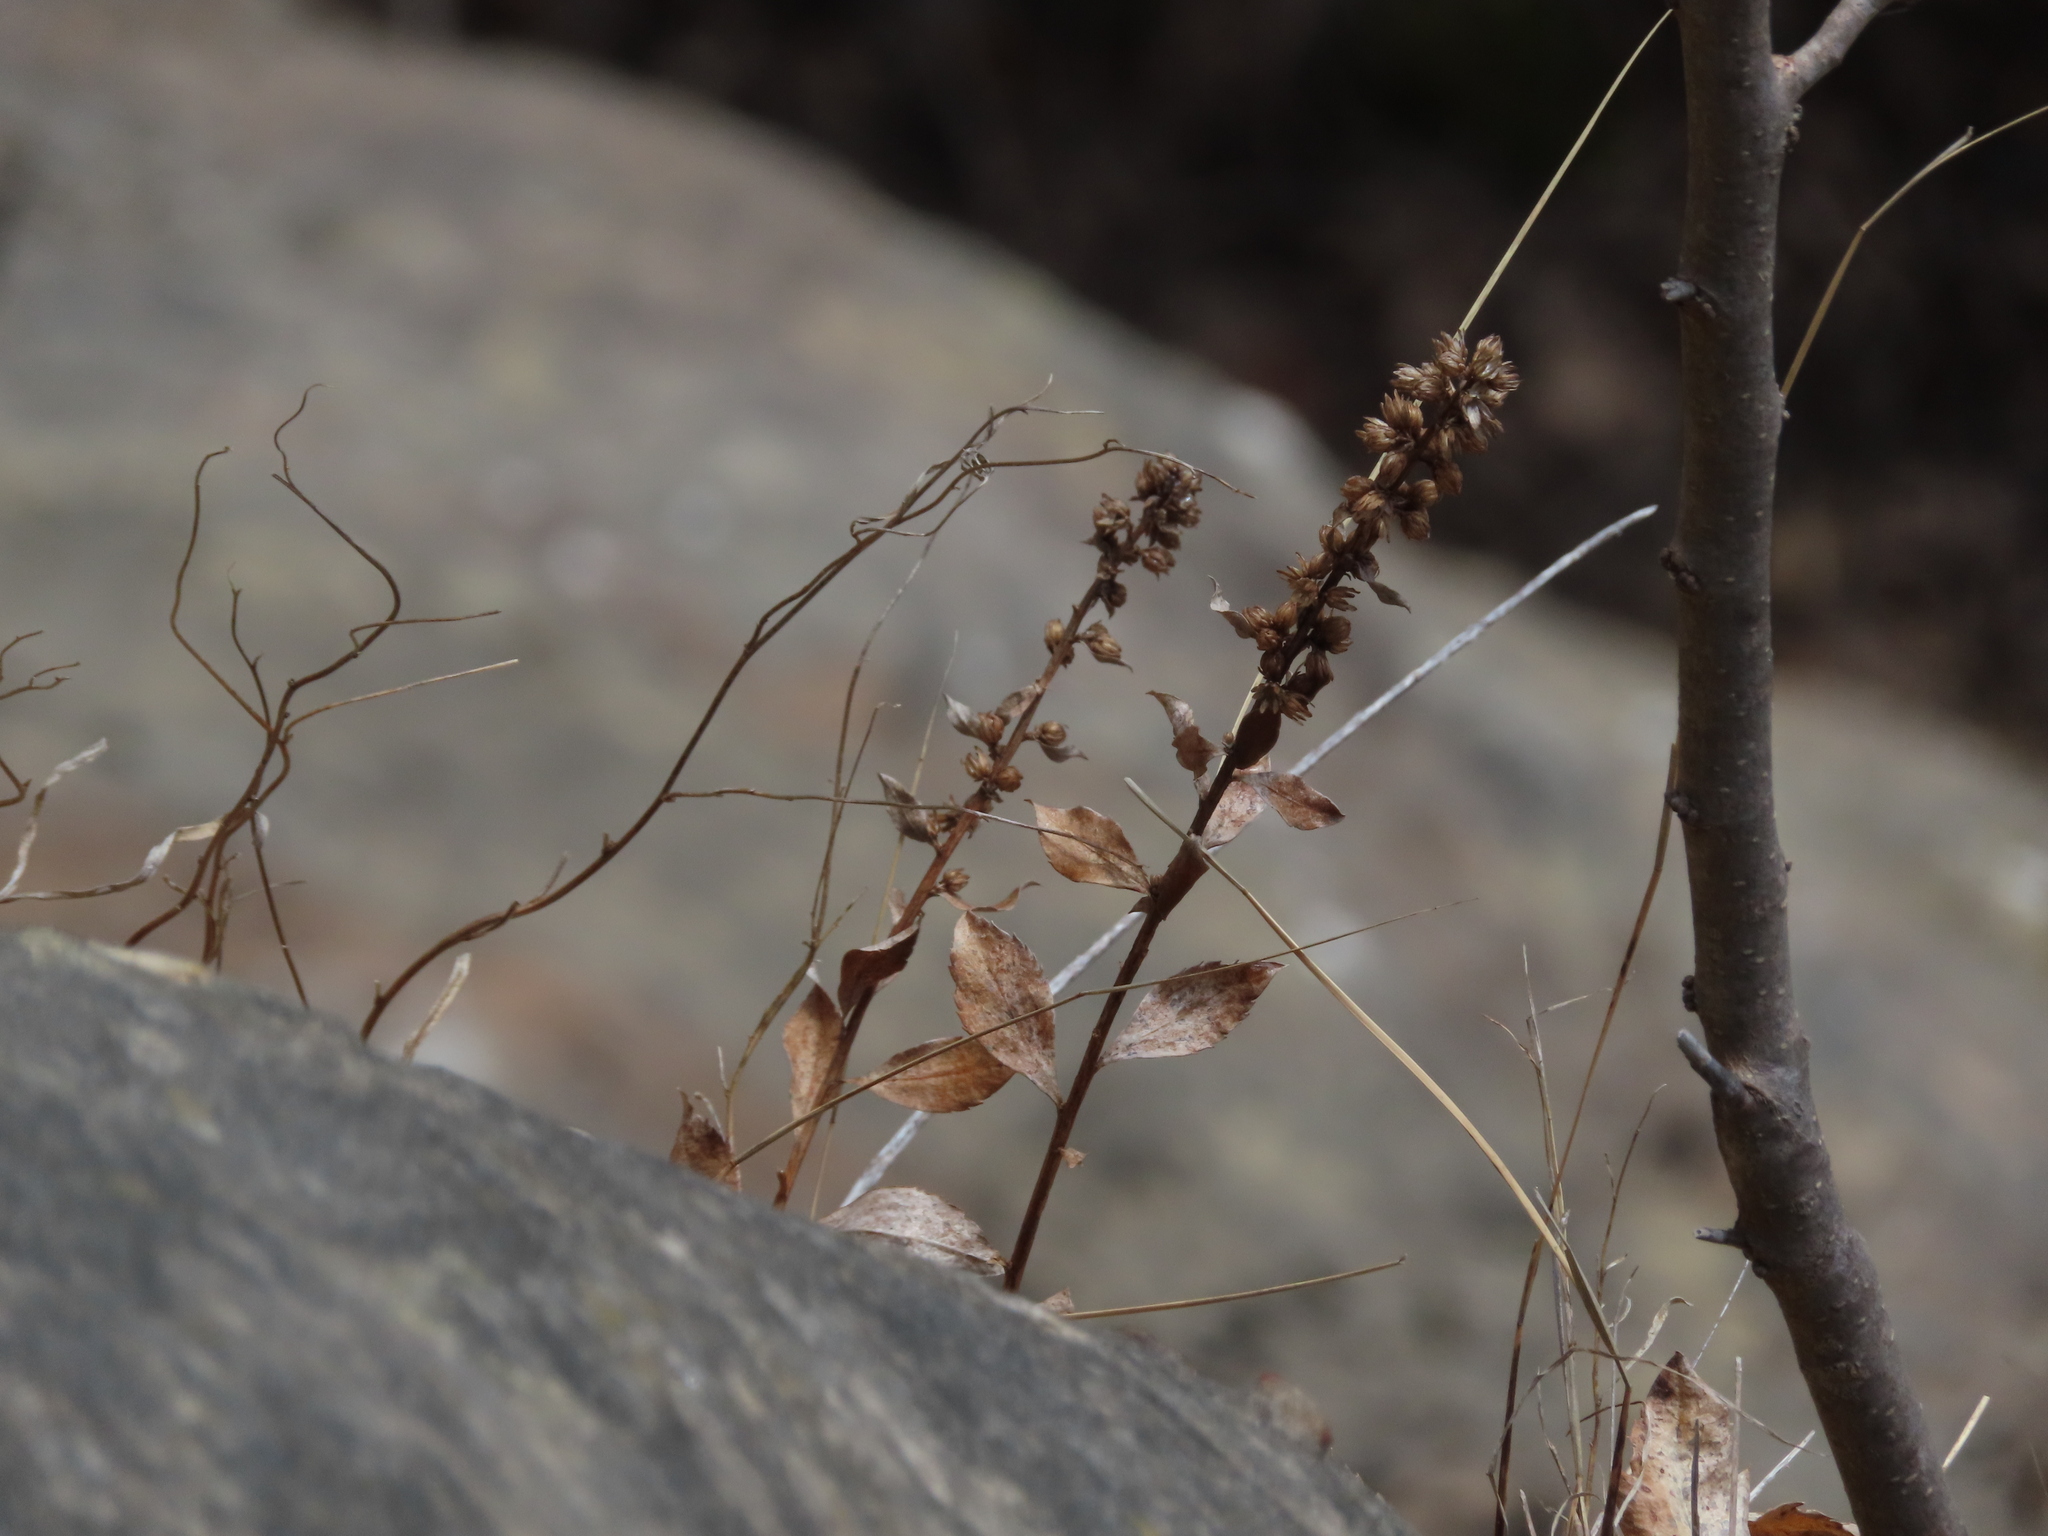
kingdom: Plantae
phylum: Tracheophyta
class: Magnoliopsida
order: Asterales
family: Asteraceae
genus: Solidago
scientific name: Solidago
